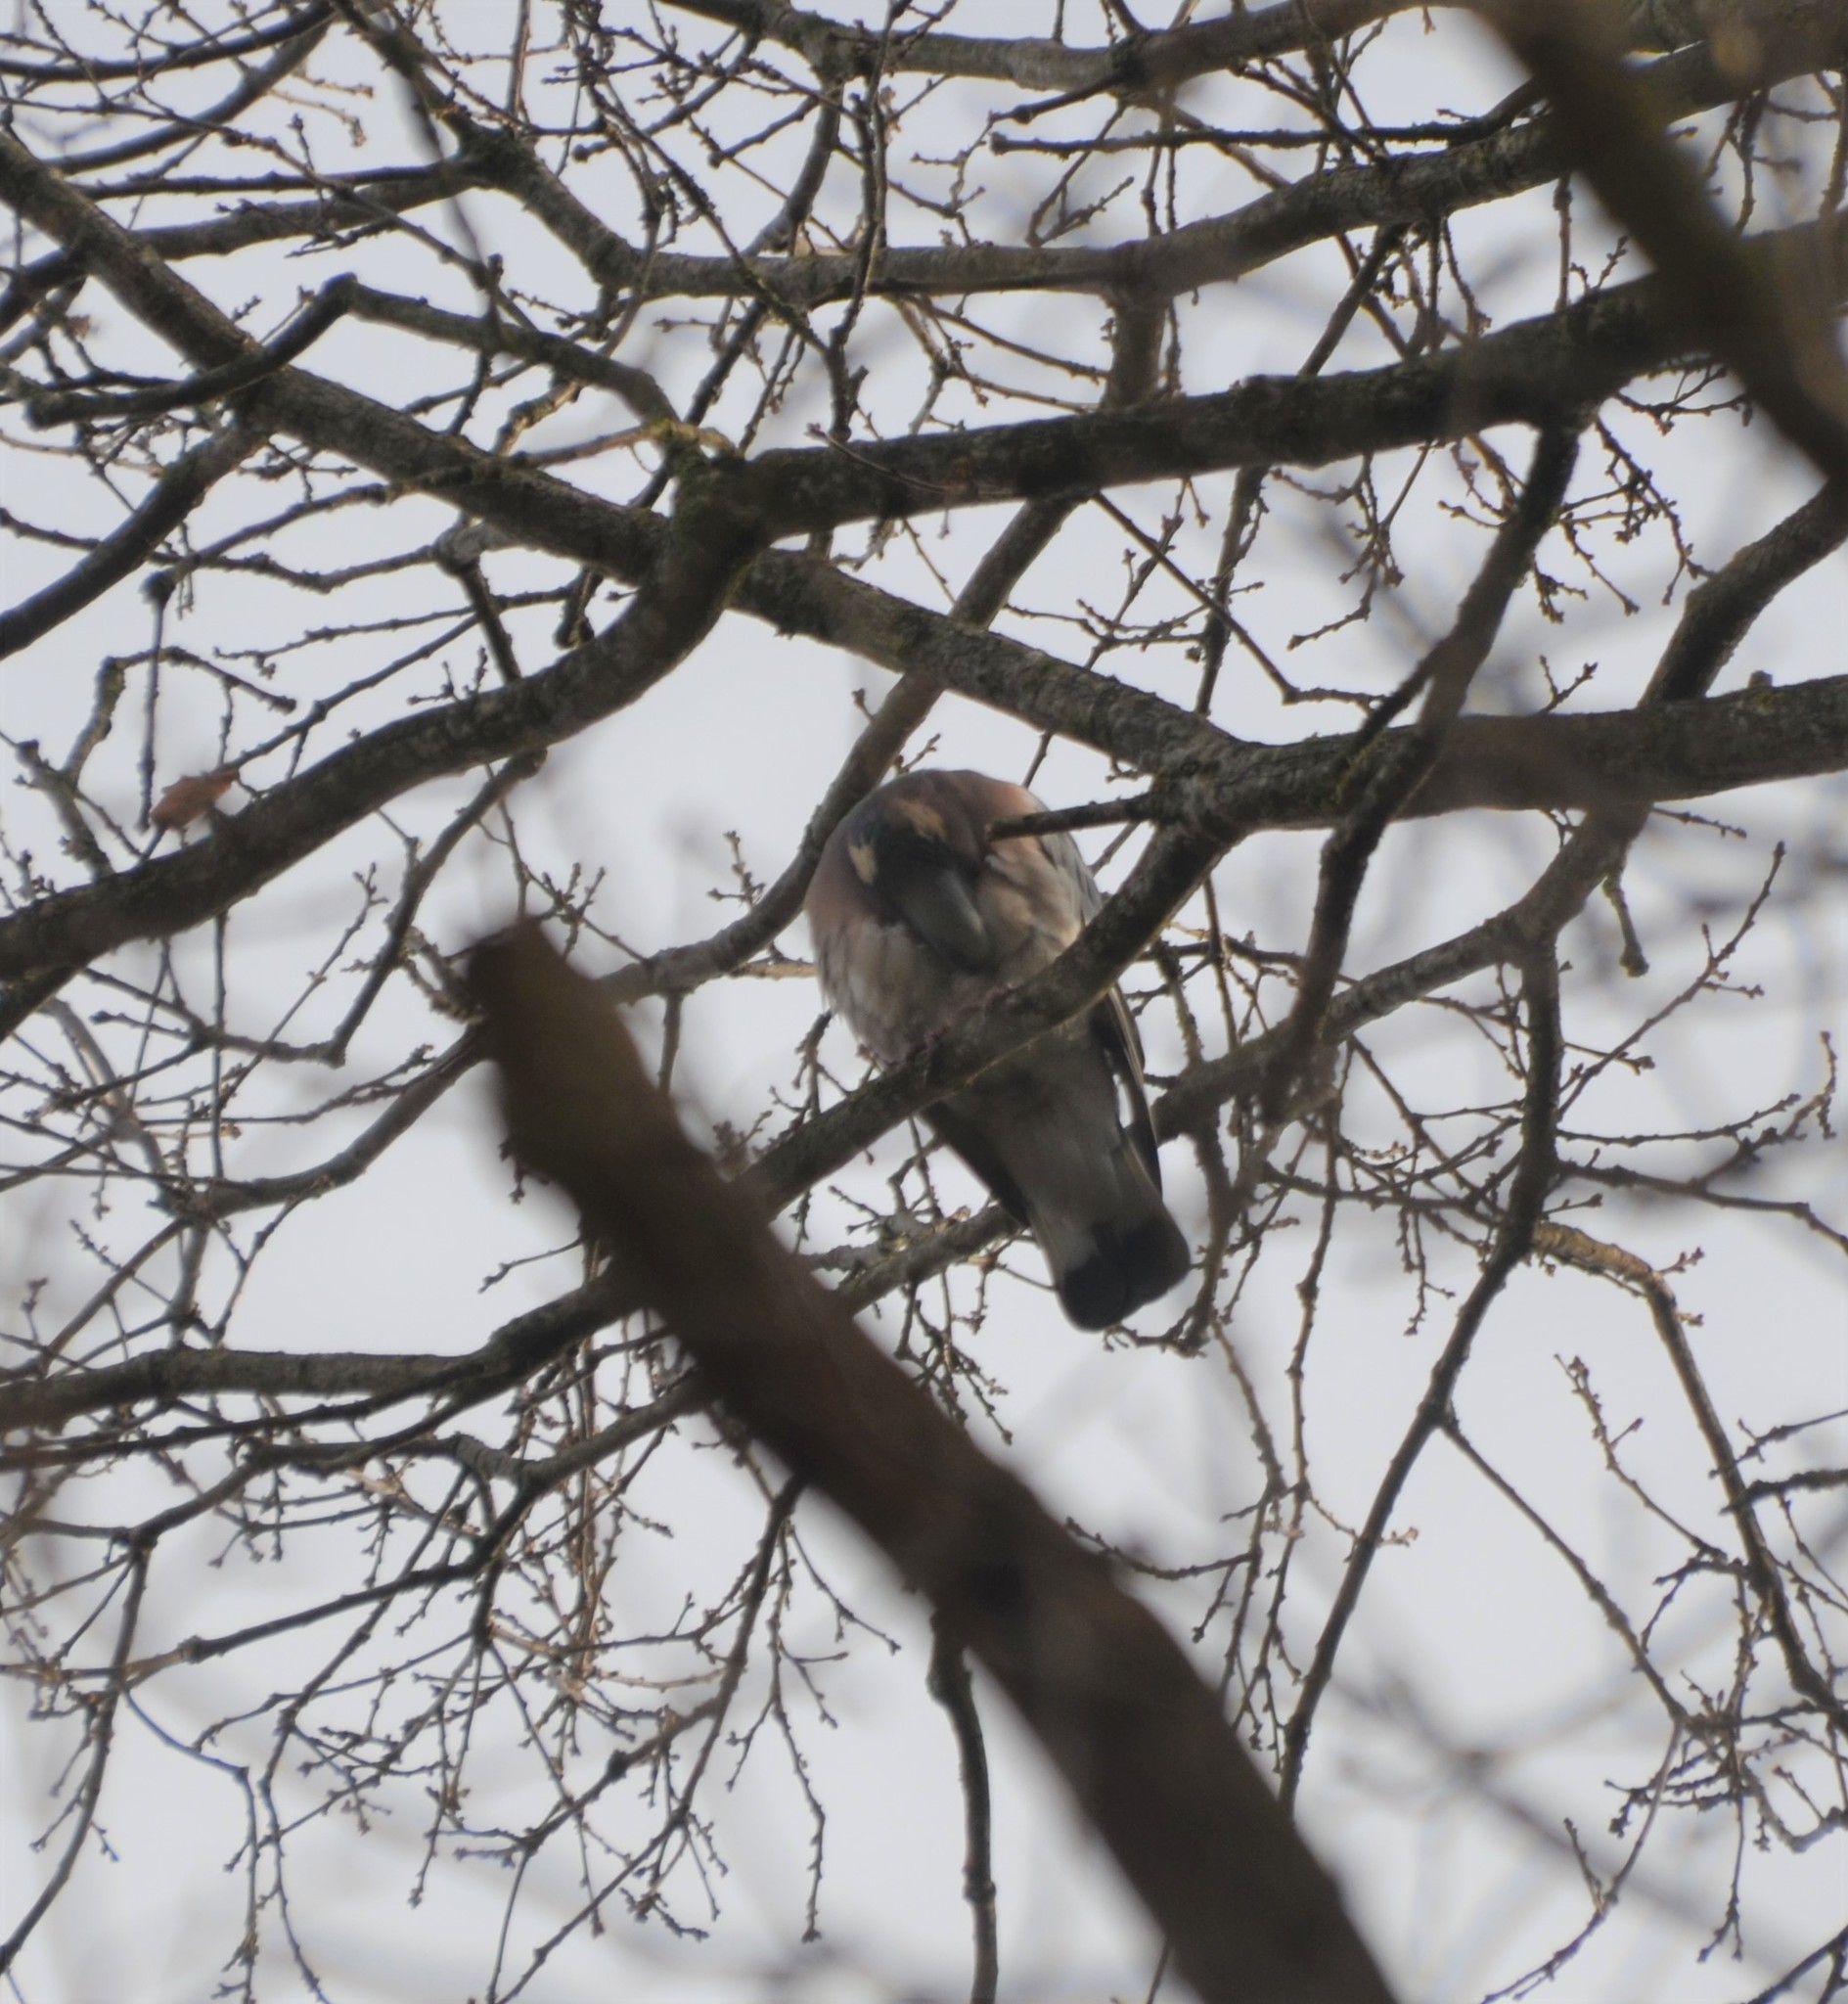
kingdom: Animalia
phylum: Chordata
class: Aves
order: Columbiformes
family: Columbidae
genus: Columba
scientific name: Columba palumbus
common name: Common wood pigeon
